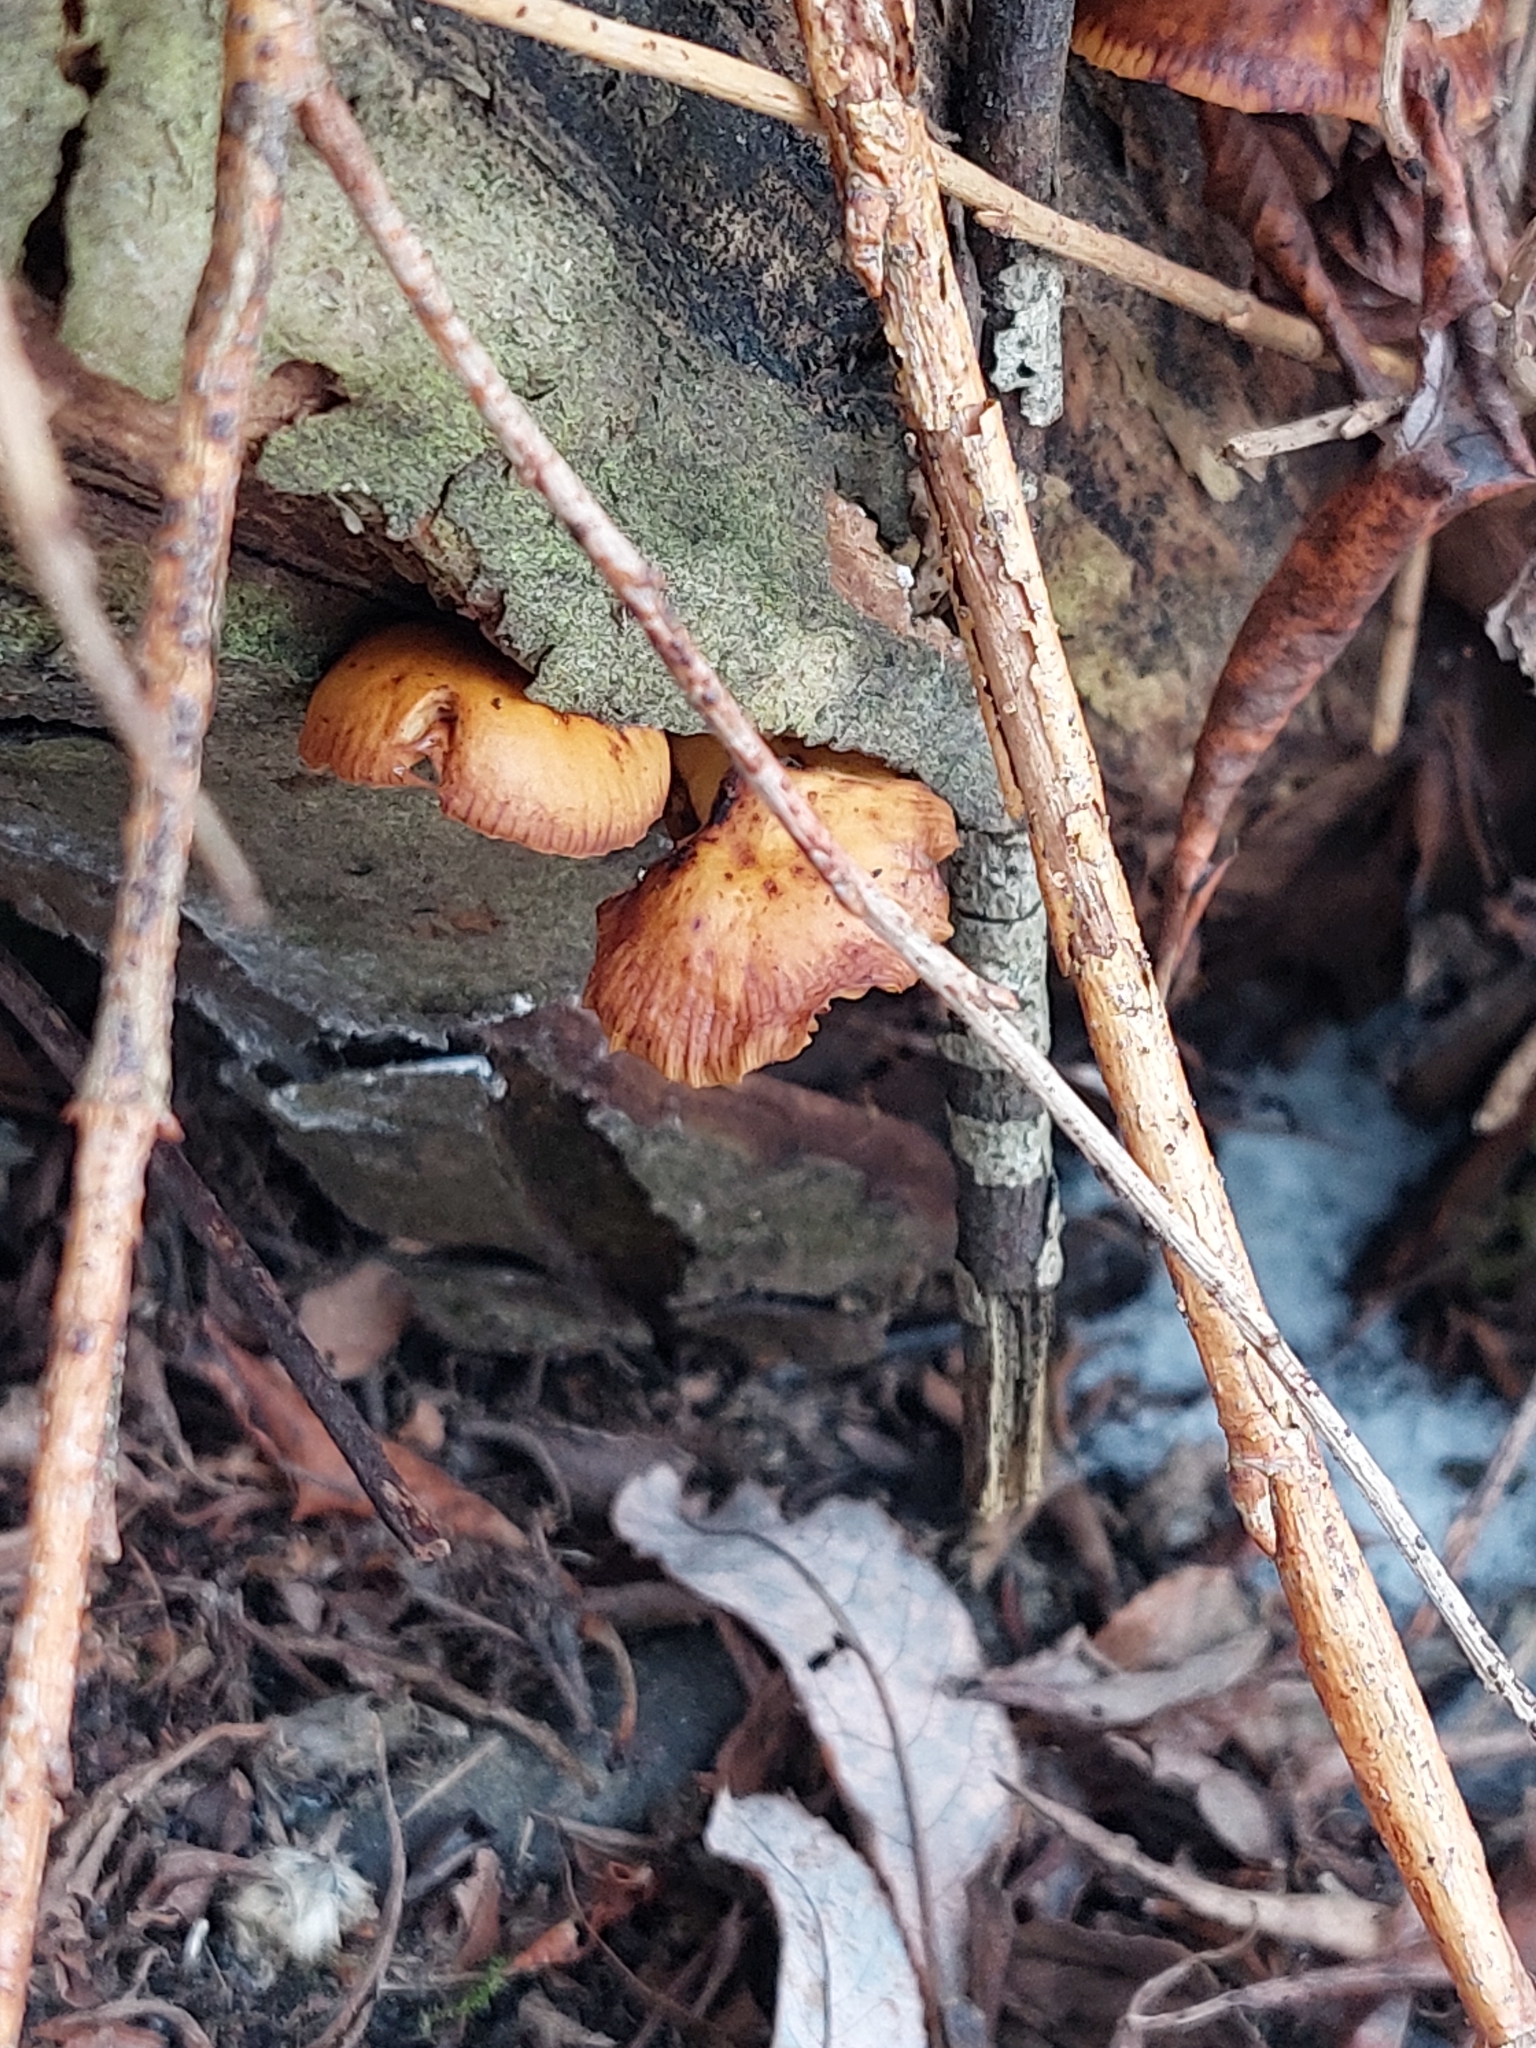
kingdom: Fungi
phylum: Basidiomycota
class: Agaricomycetes
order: Agaricales
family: Physalacriaceae
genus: Flammulina
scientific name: Flammulina
